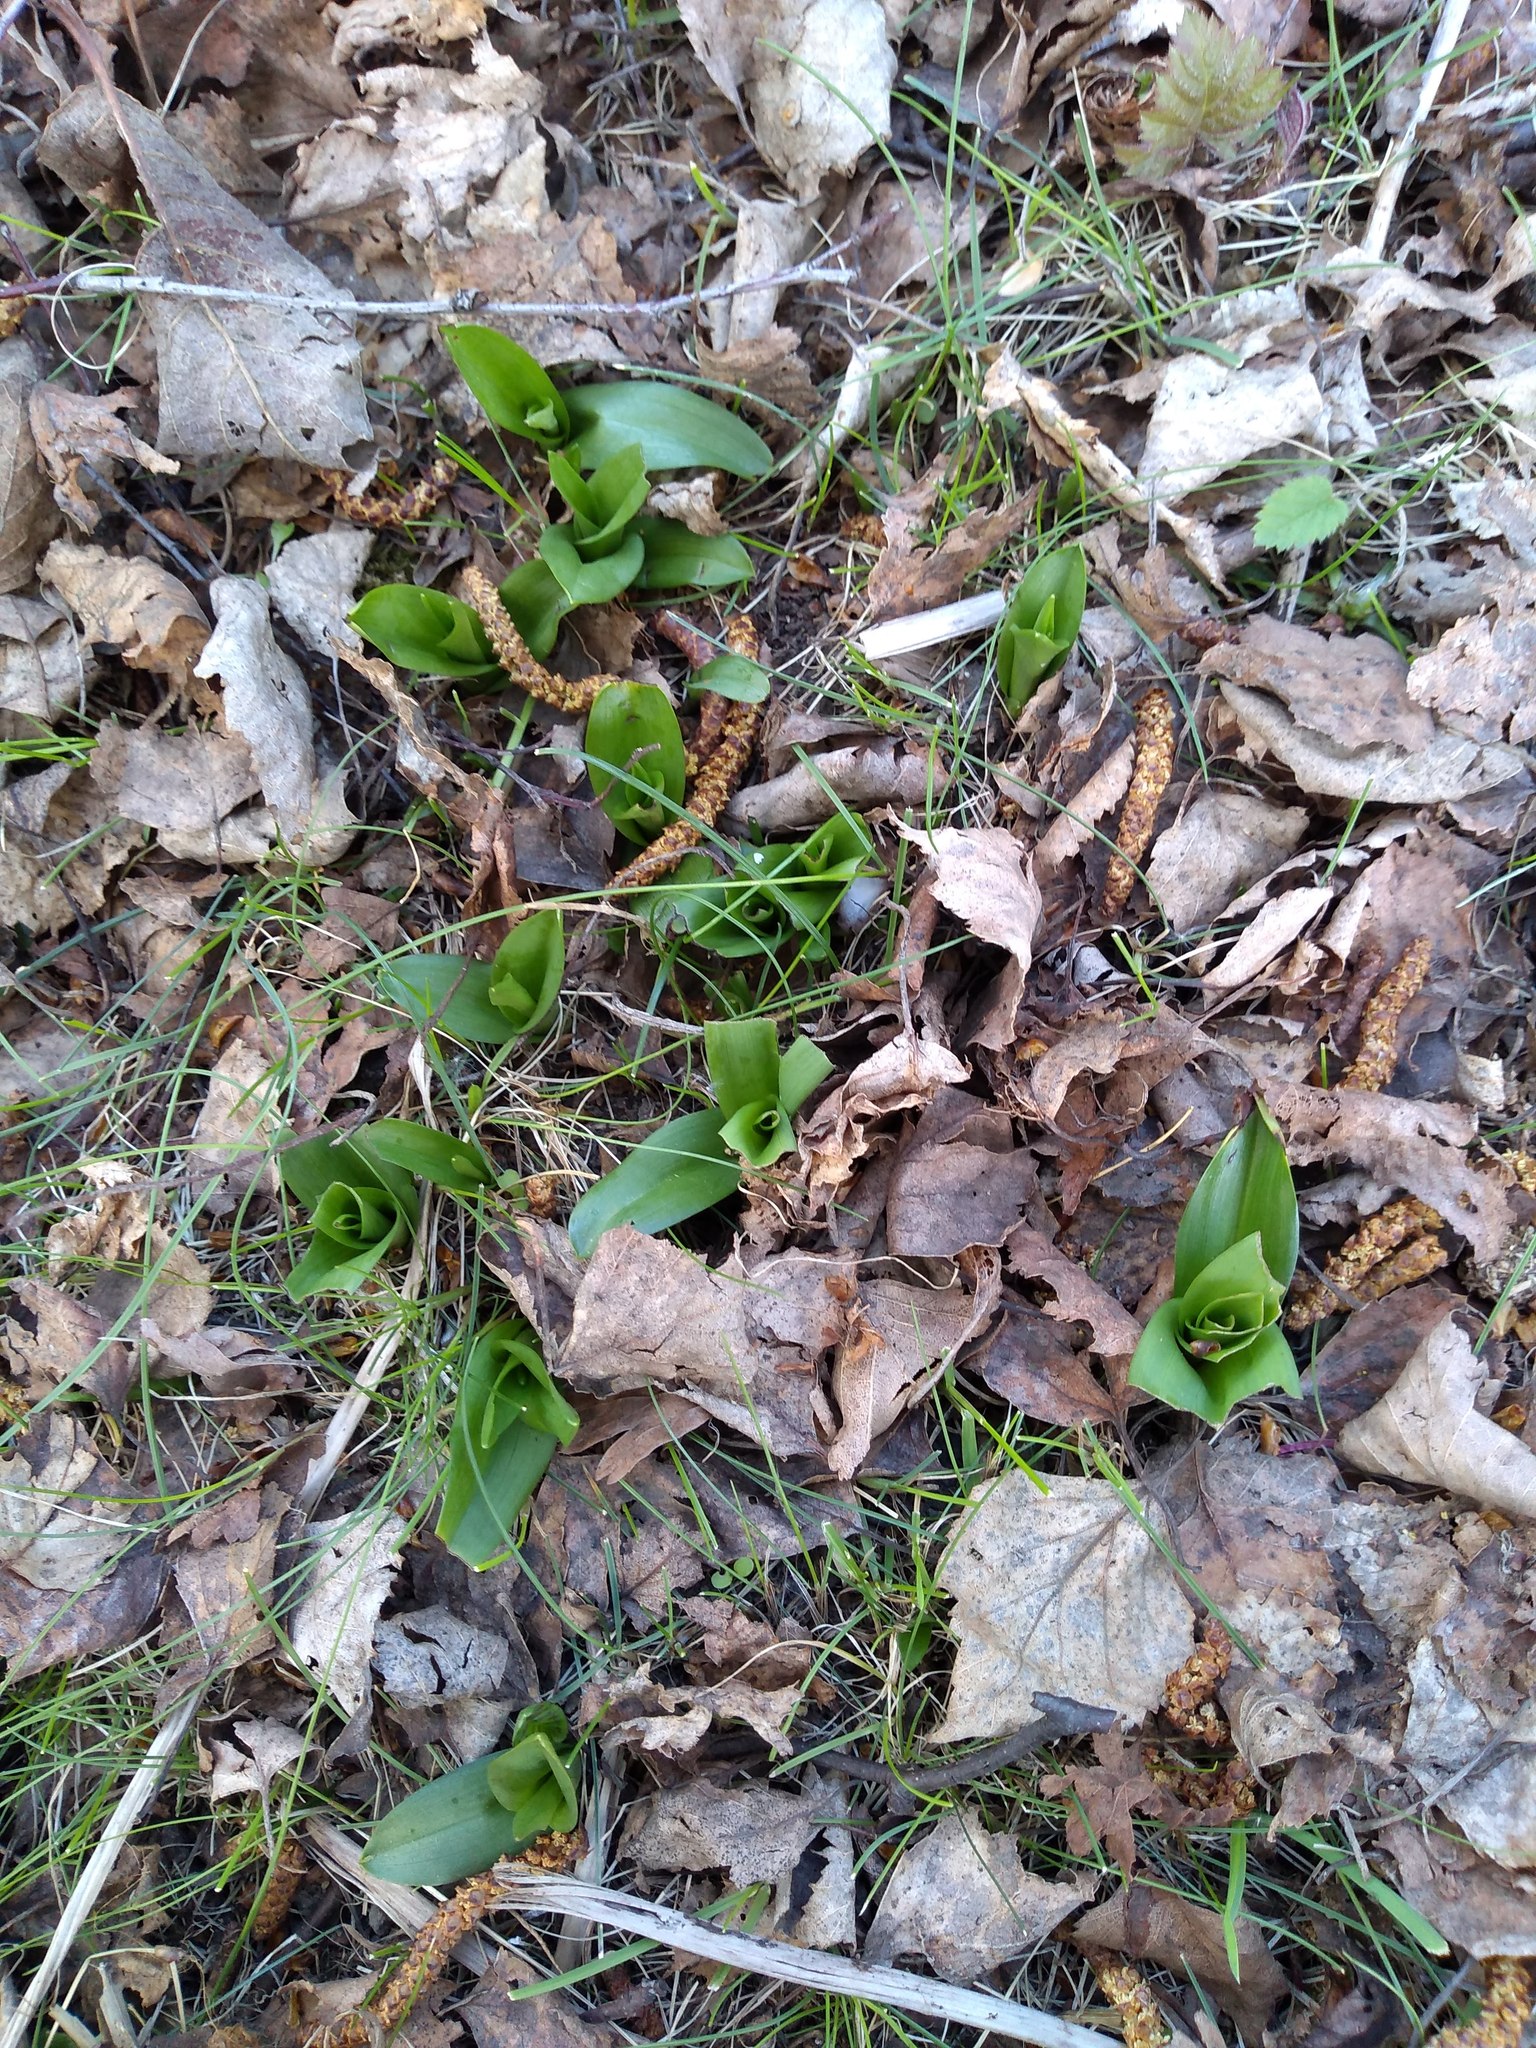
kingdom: Plantae
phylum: Tracheophyta
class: Liliopsida
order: Asparagales
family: Orchidaceae
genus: Dactylorhiza
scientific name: Dactylorhiza maculata
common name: Heath spotted-orchid
